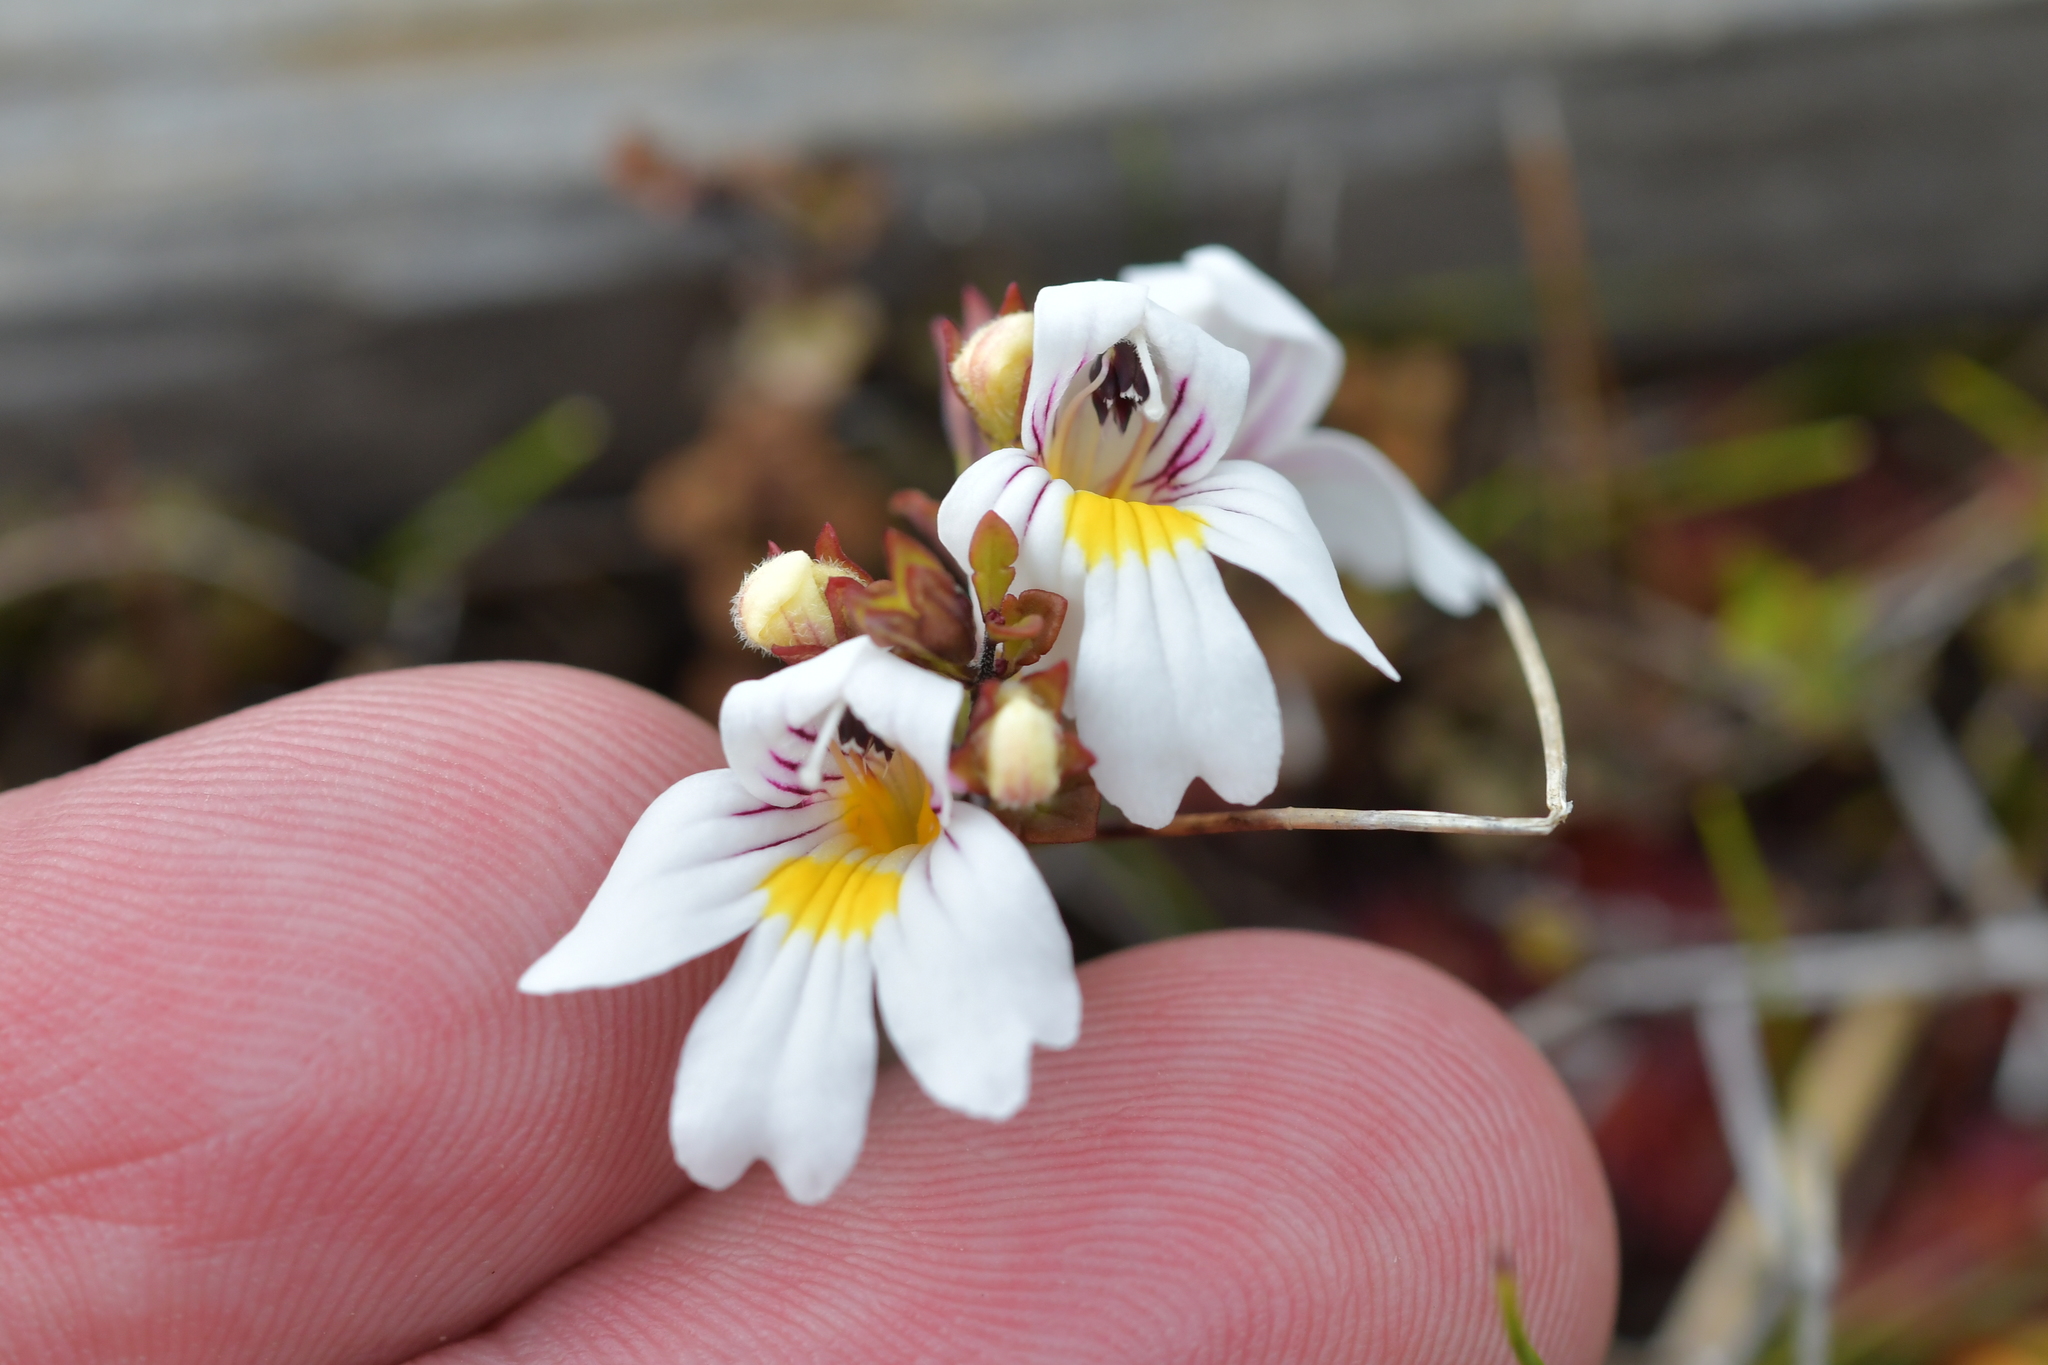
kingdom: Plantae
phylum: Tracheophyta
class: Magnoliopsida
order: Lamiales
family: Orobanchaceae
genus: Euphrasia
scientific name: Euphrasia cuneata
